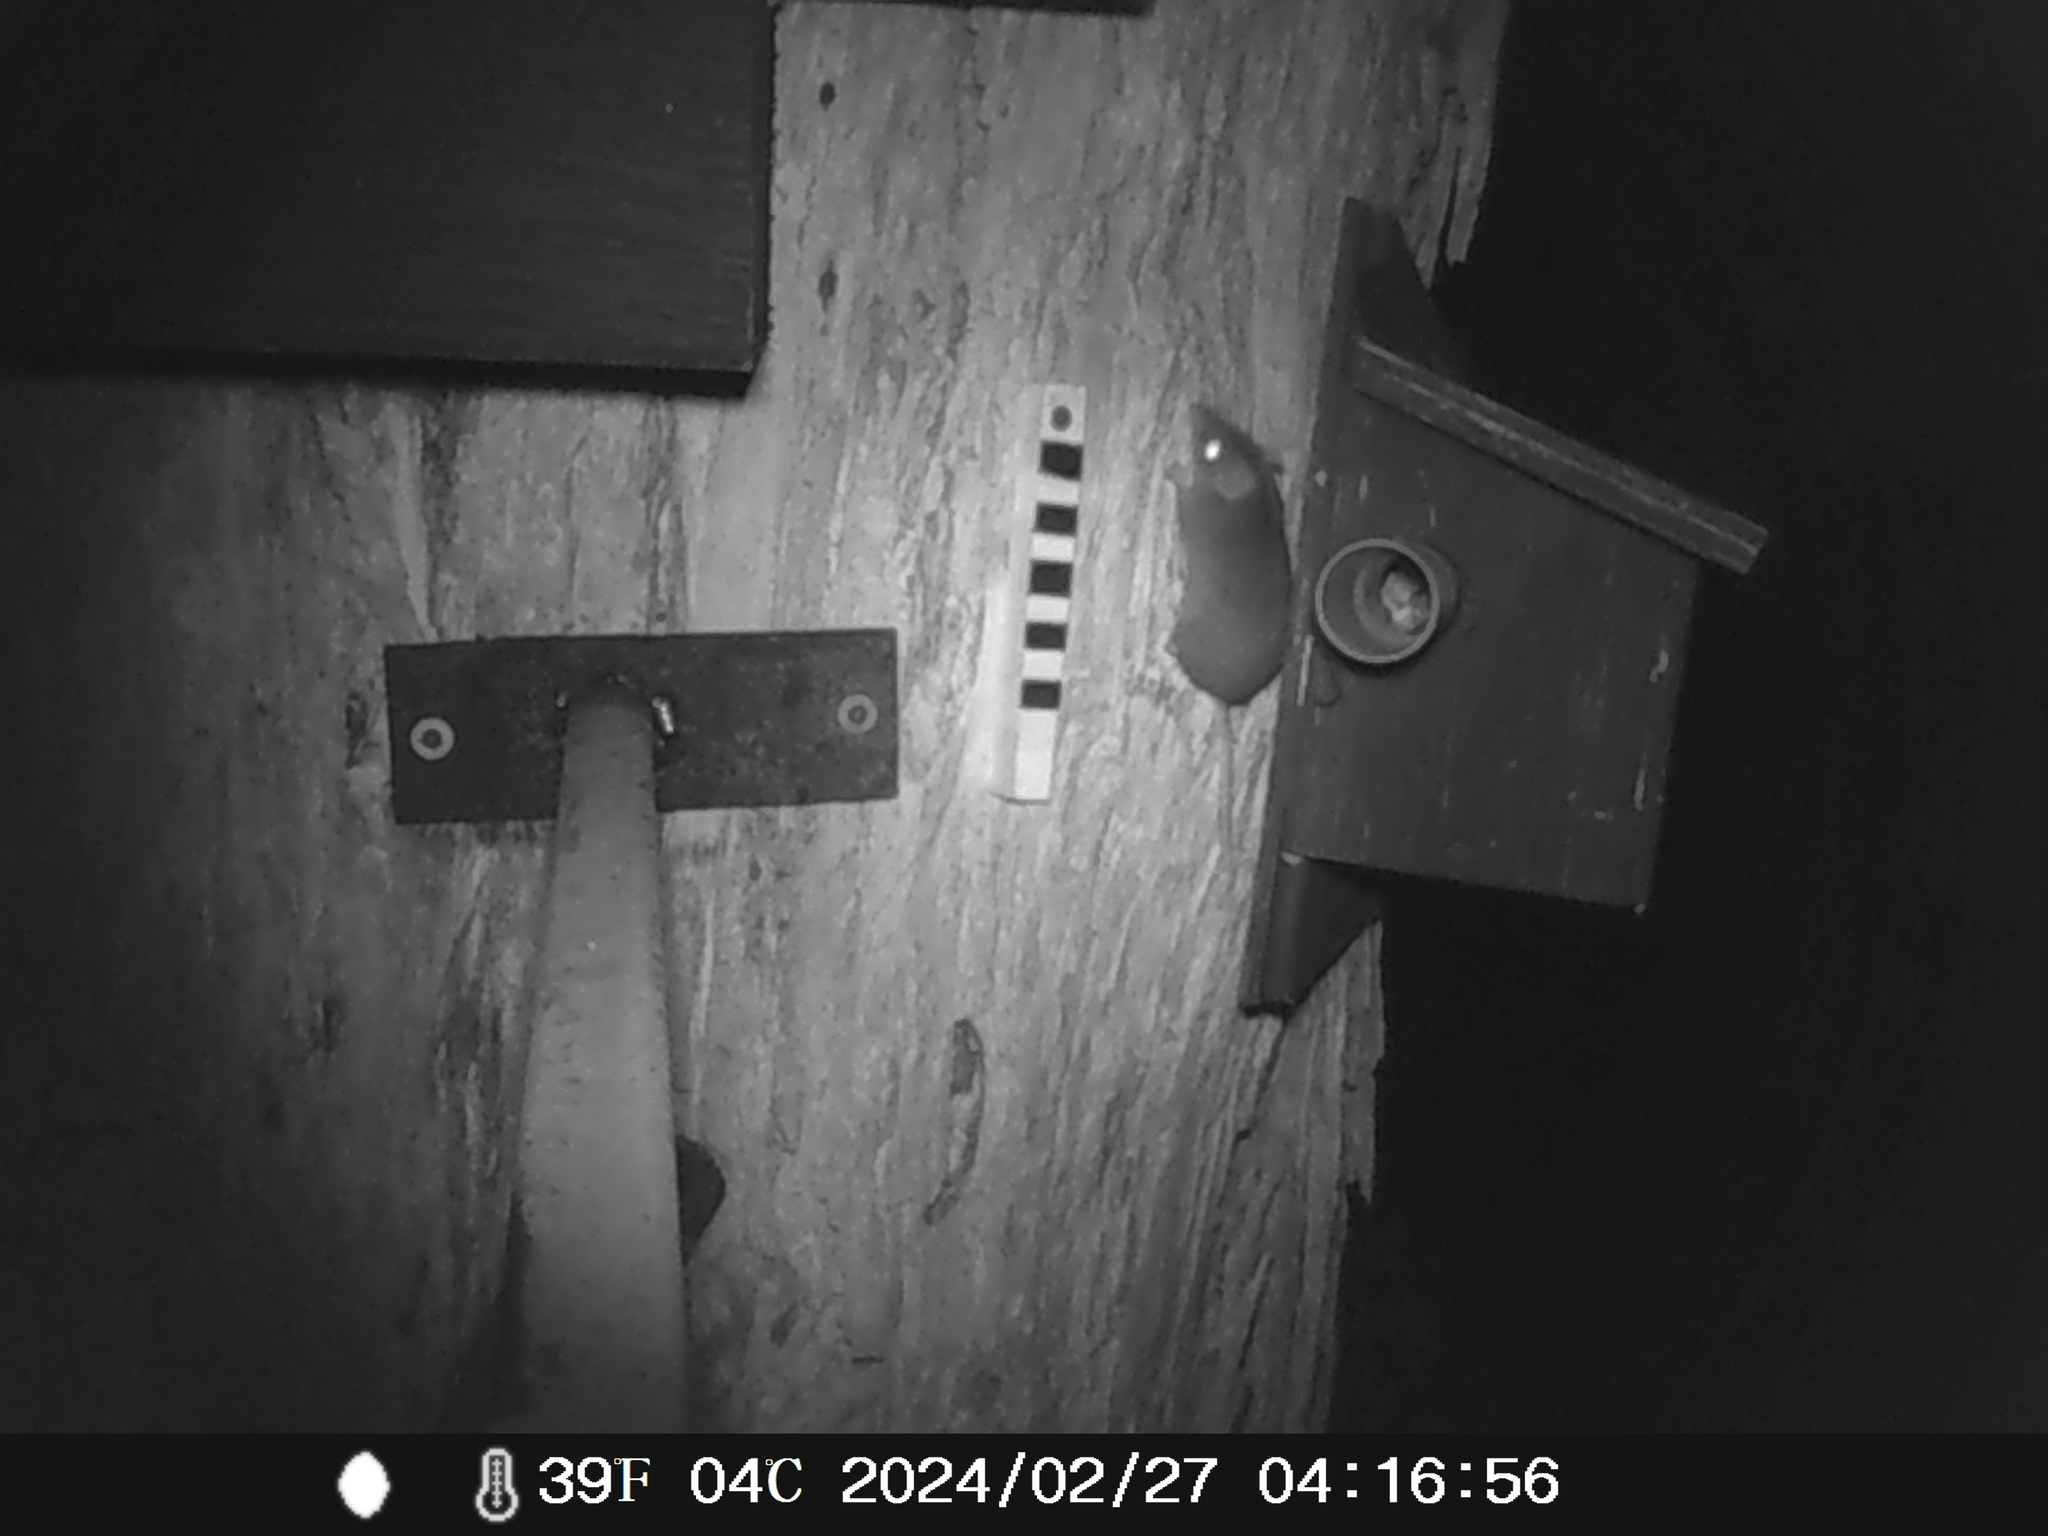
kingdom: Animalia
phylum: Chordata
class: Mammalia
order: Dasyuromorphia
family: Dasyuridae
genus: Antechinus
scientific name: Antechinus agilis
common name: Agile antechinus
